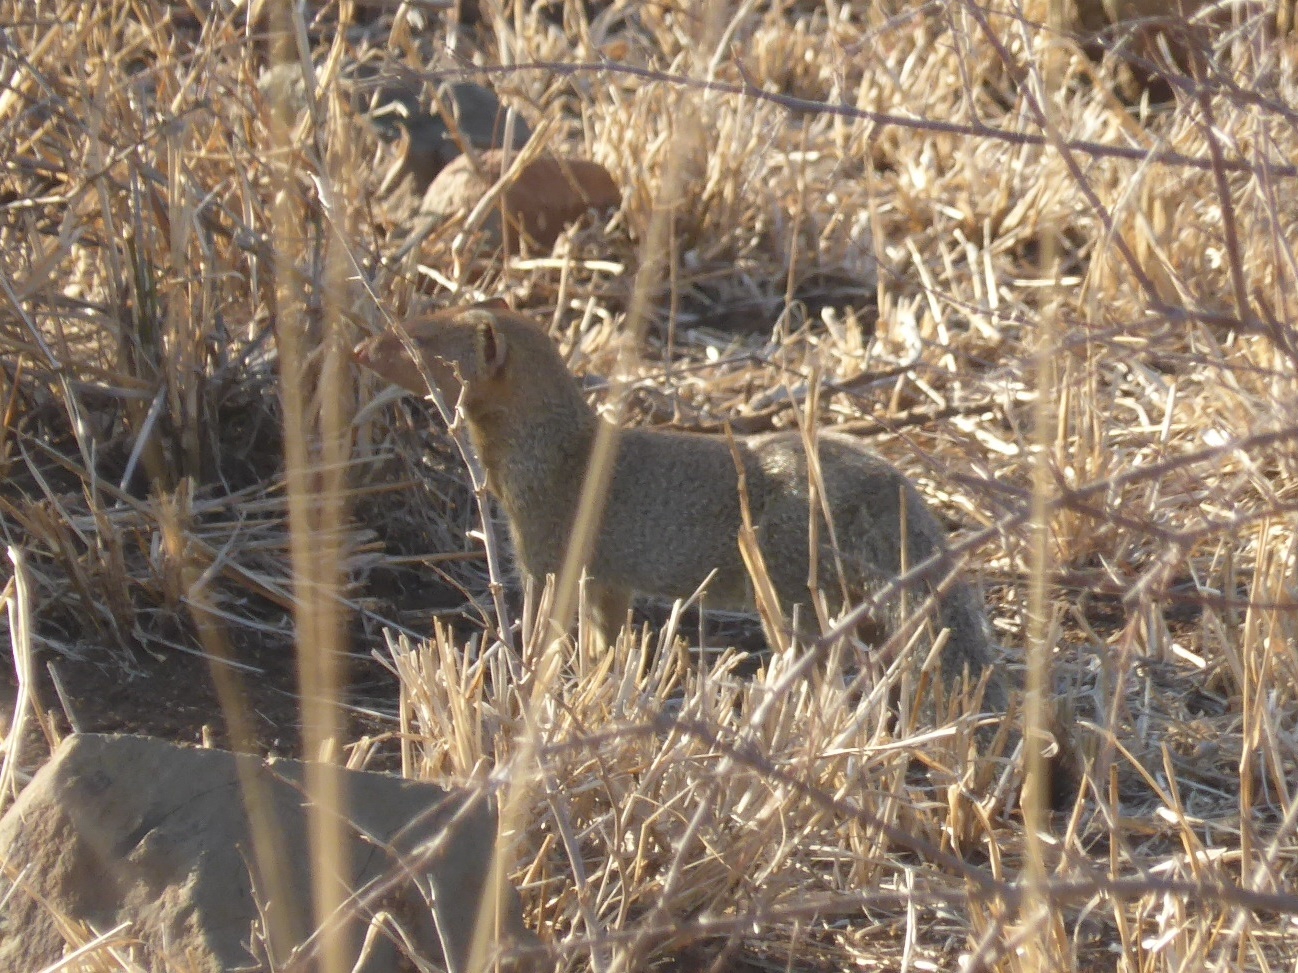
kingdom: Animalia
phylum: Chordata
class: Mammalia
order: Carnivora
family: Herpestidae
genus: Galerella
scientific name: Galerella sanguinea
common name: Slender mongoose
